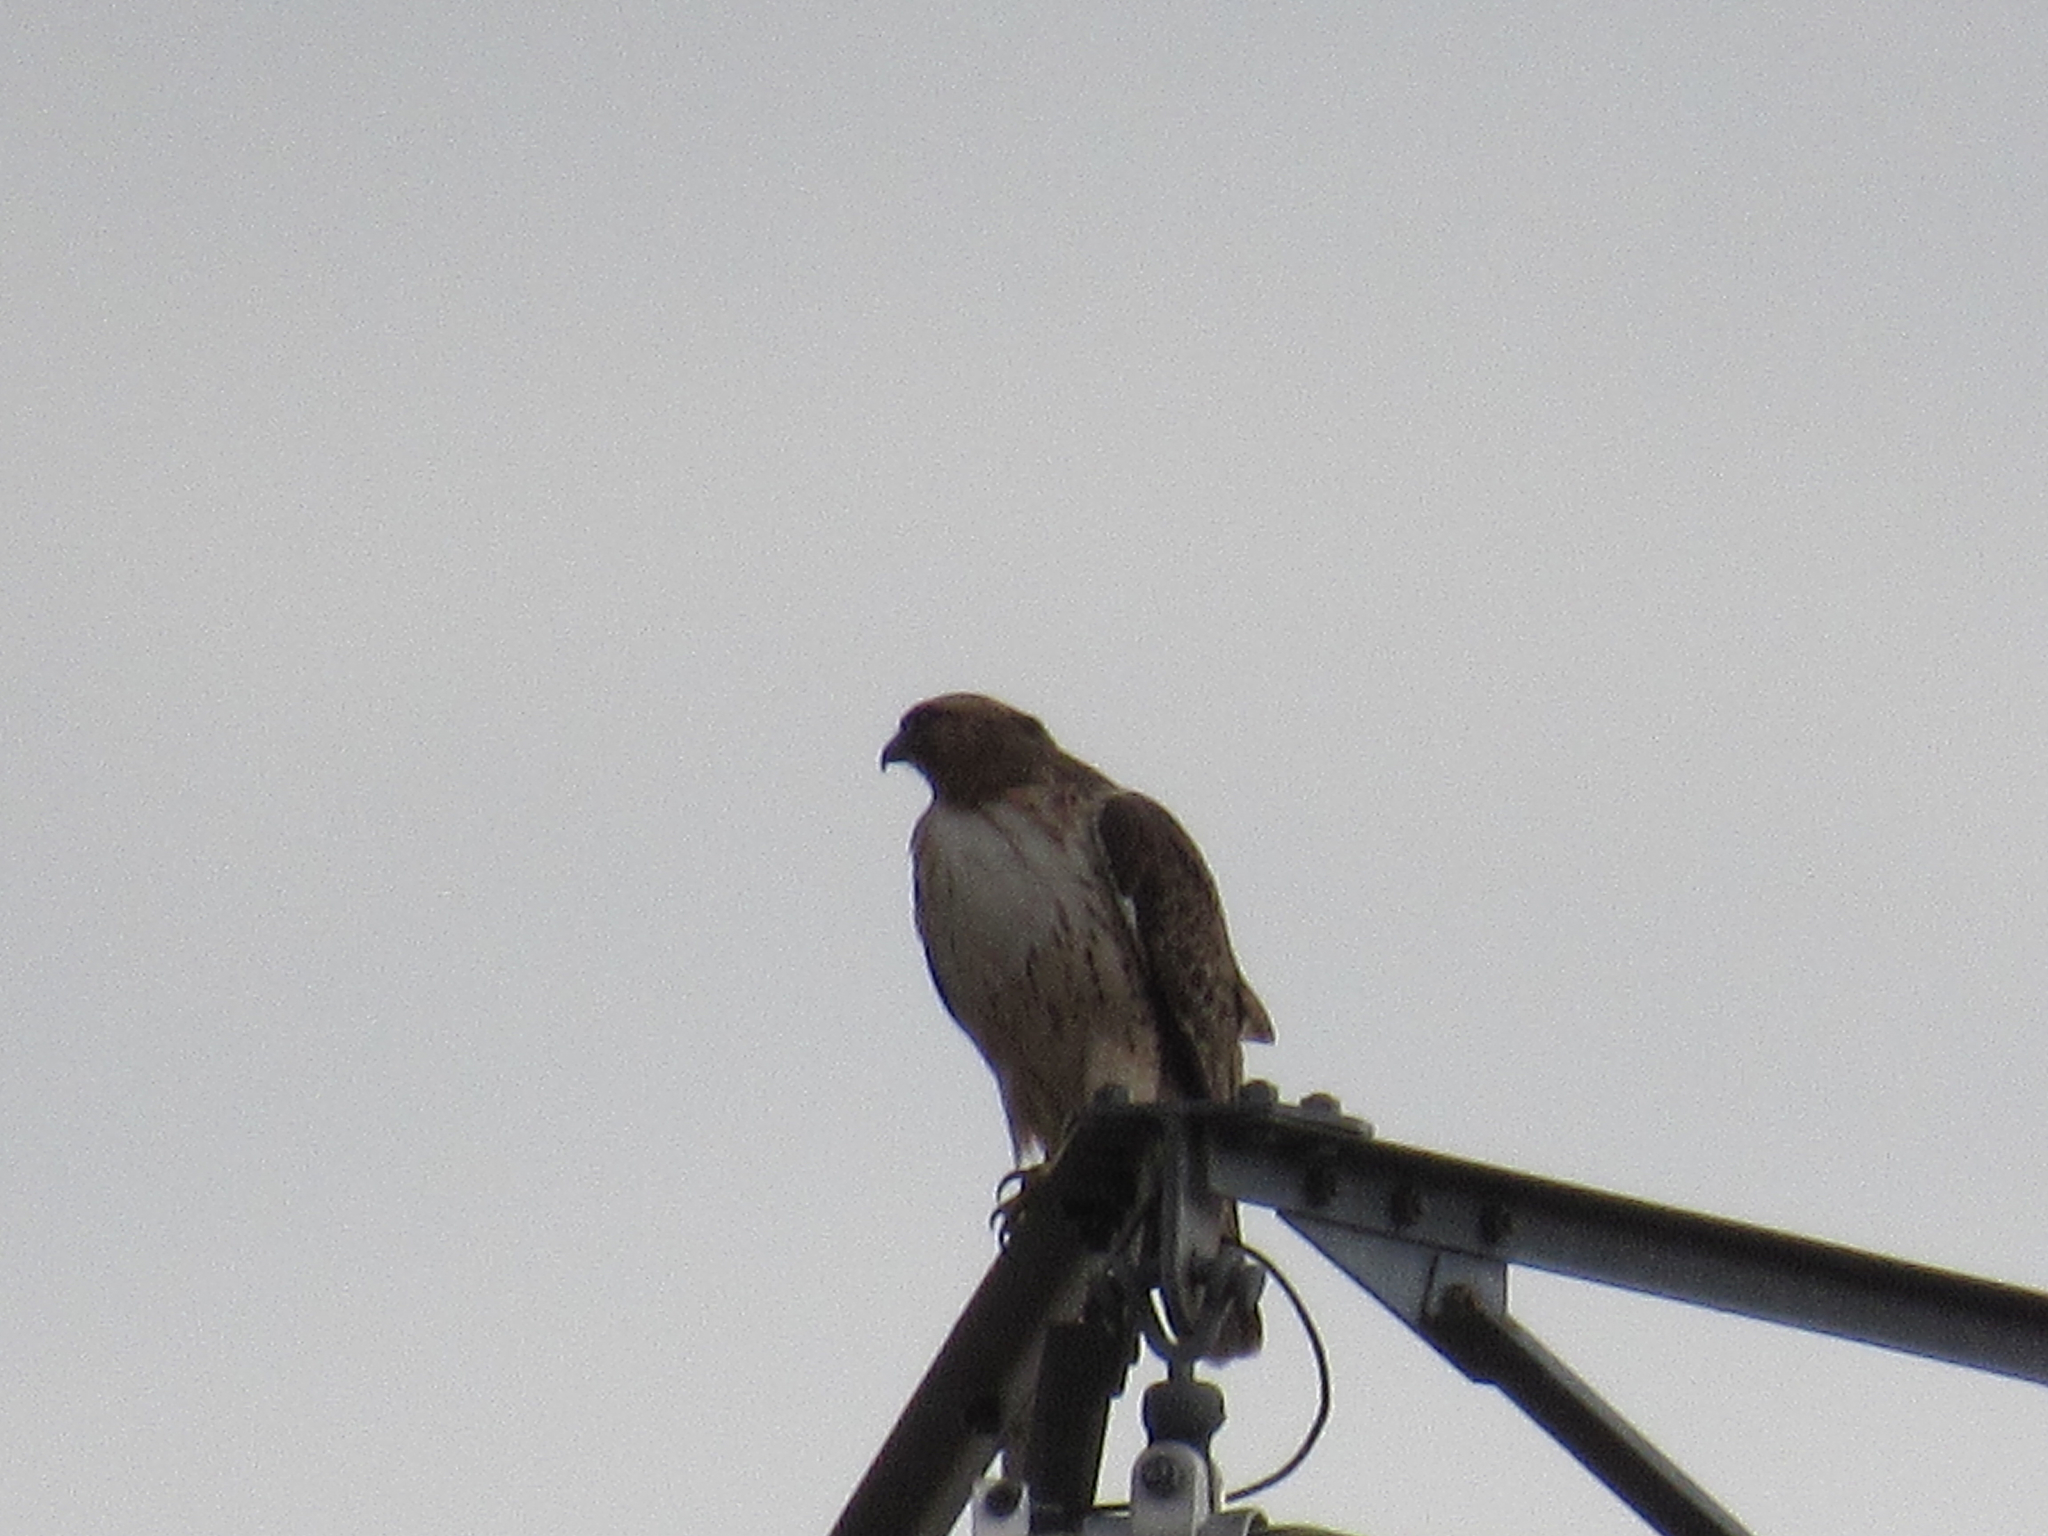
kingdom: Animalia
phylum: Chordata
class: Aves
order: Accipitriformes
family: Accipitridae
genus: Buteo
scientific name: Buteo jamaicensis
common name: Red-tailed hawk
